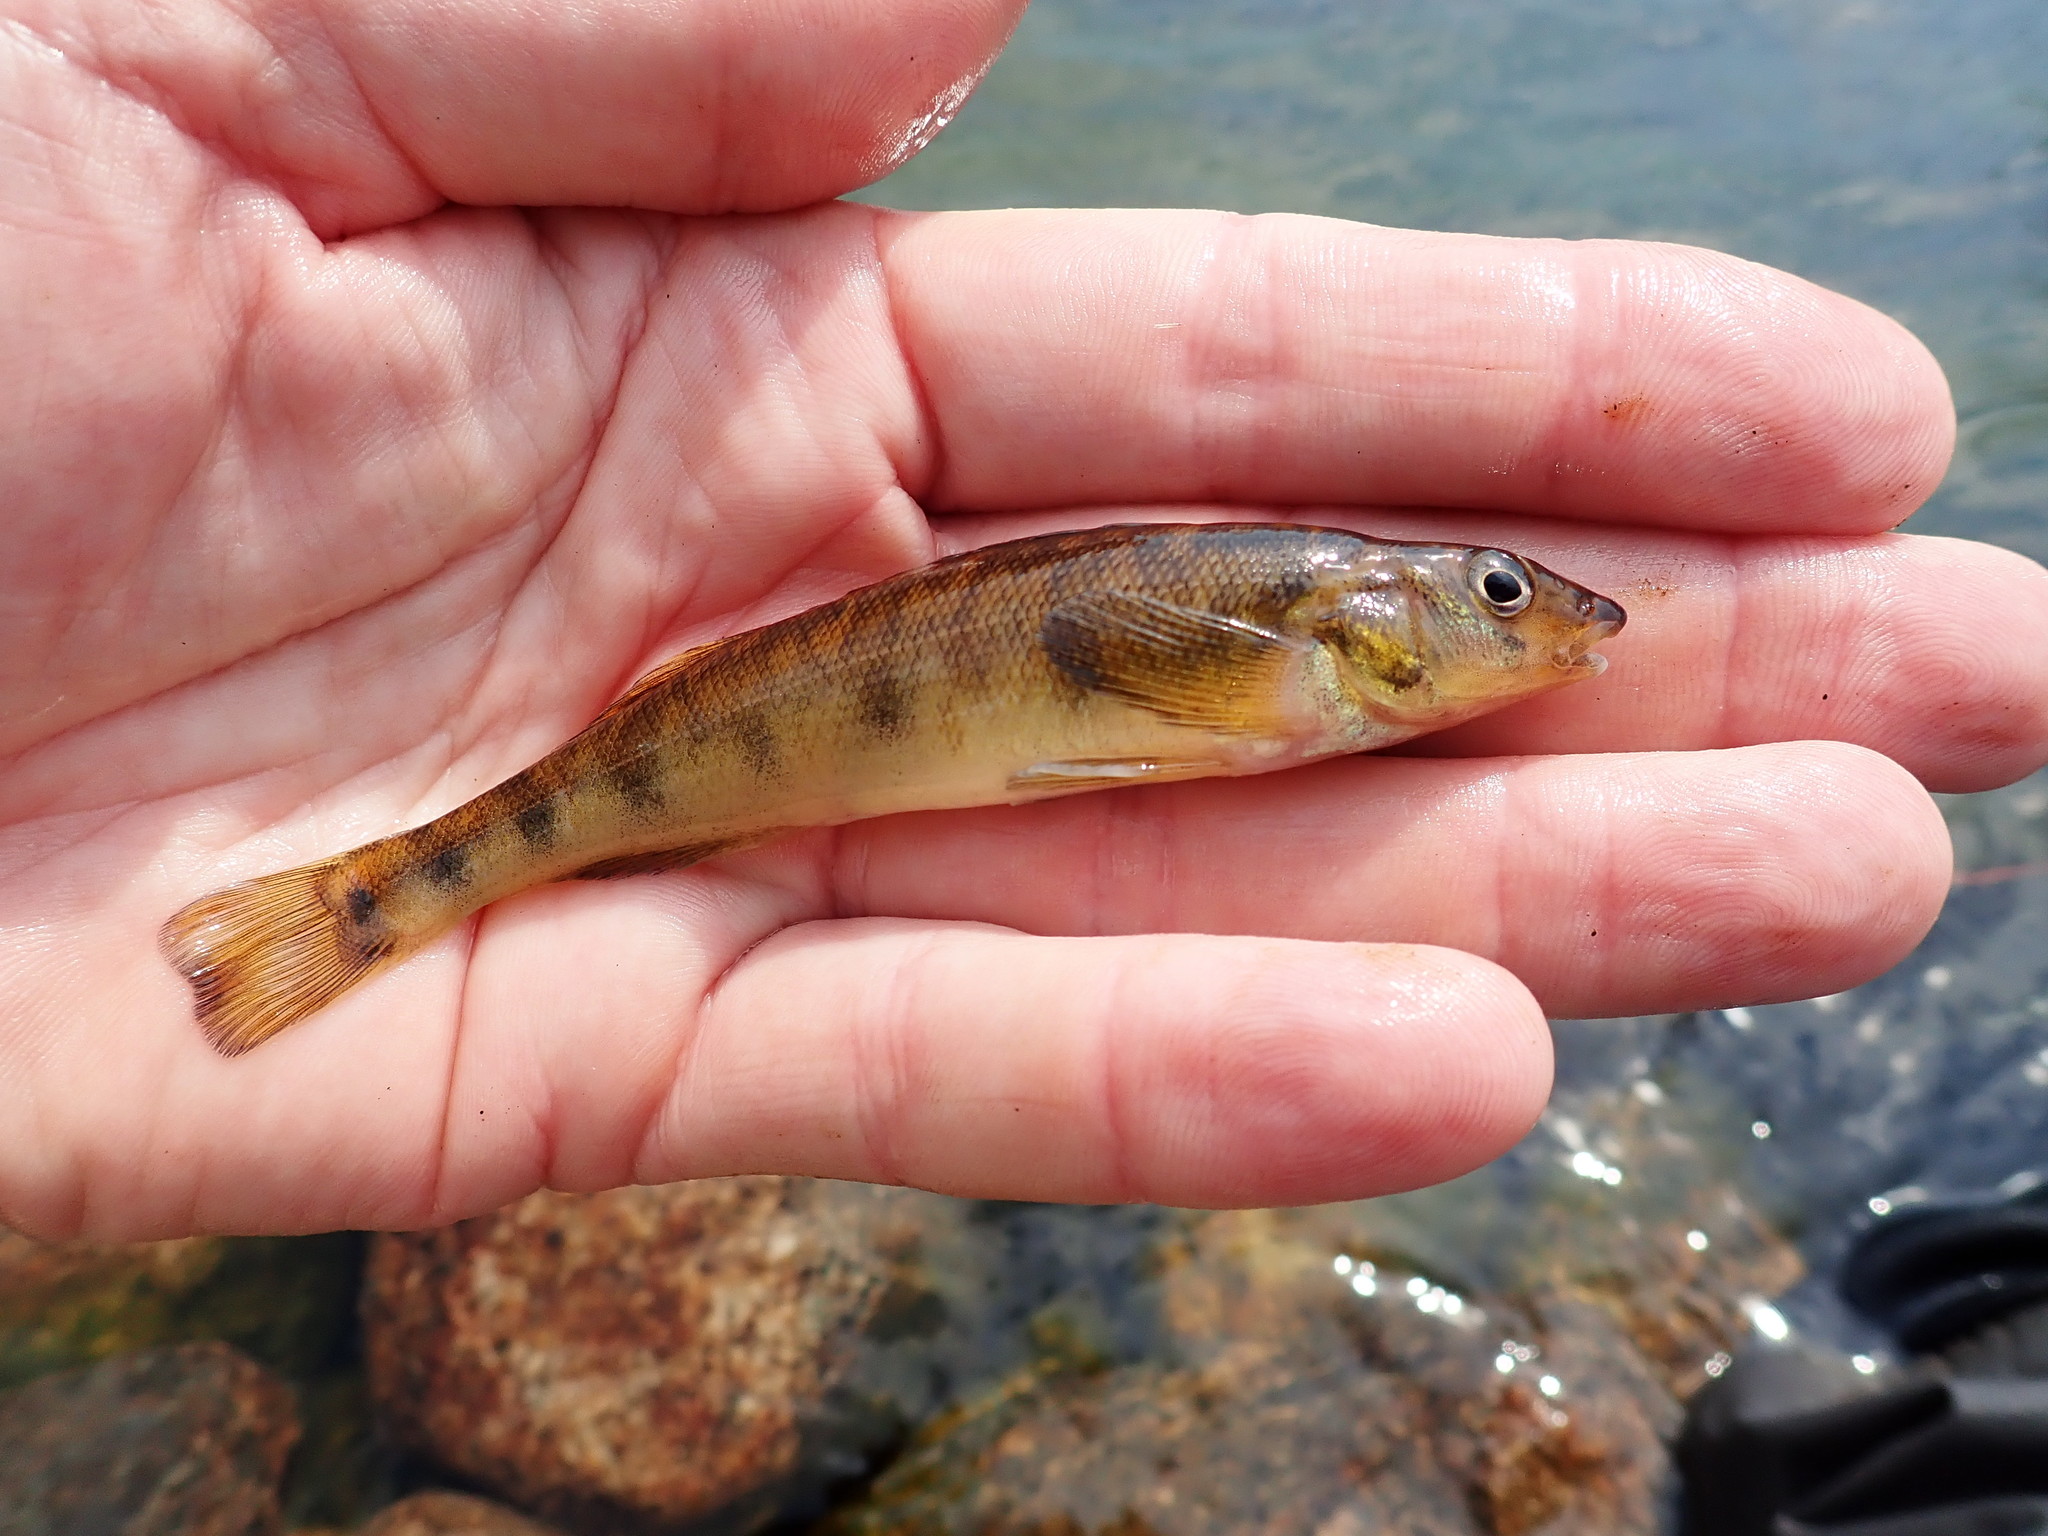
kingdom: Animalia
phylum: Chordata
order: Perciformes
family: Percidae
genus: Percina
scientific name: Percina caprodes
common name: Logperch
